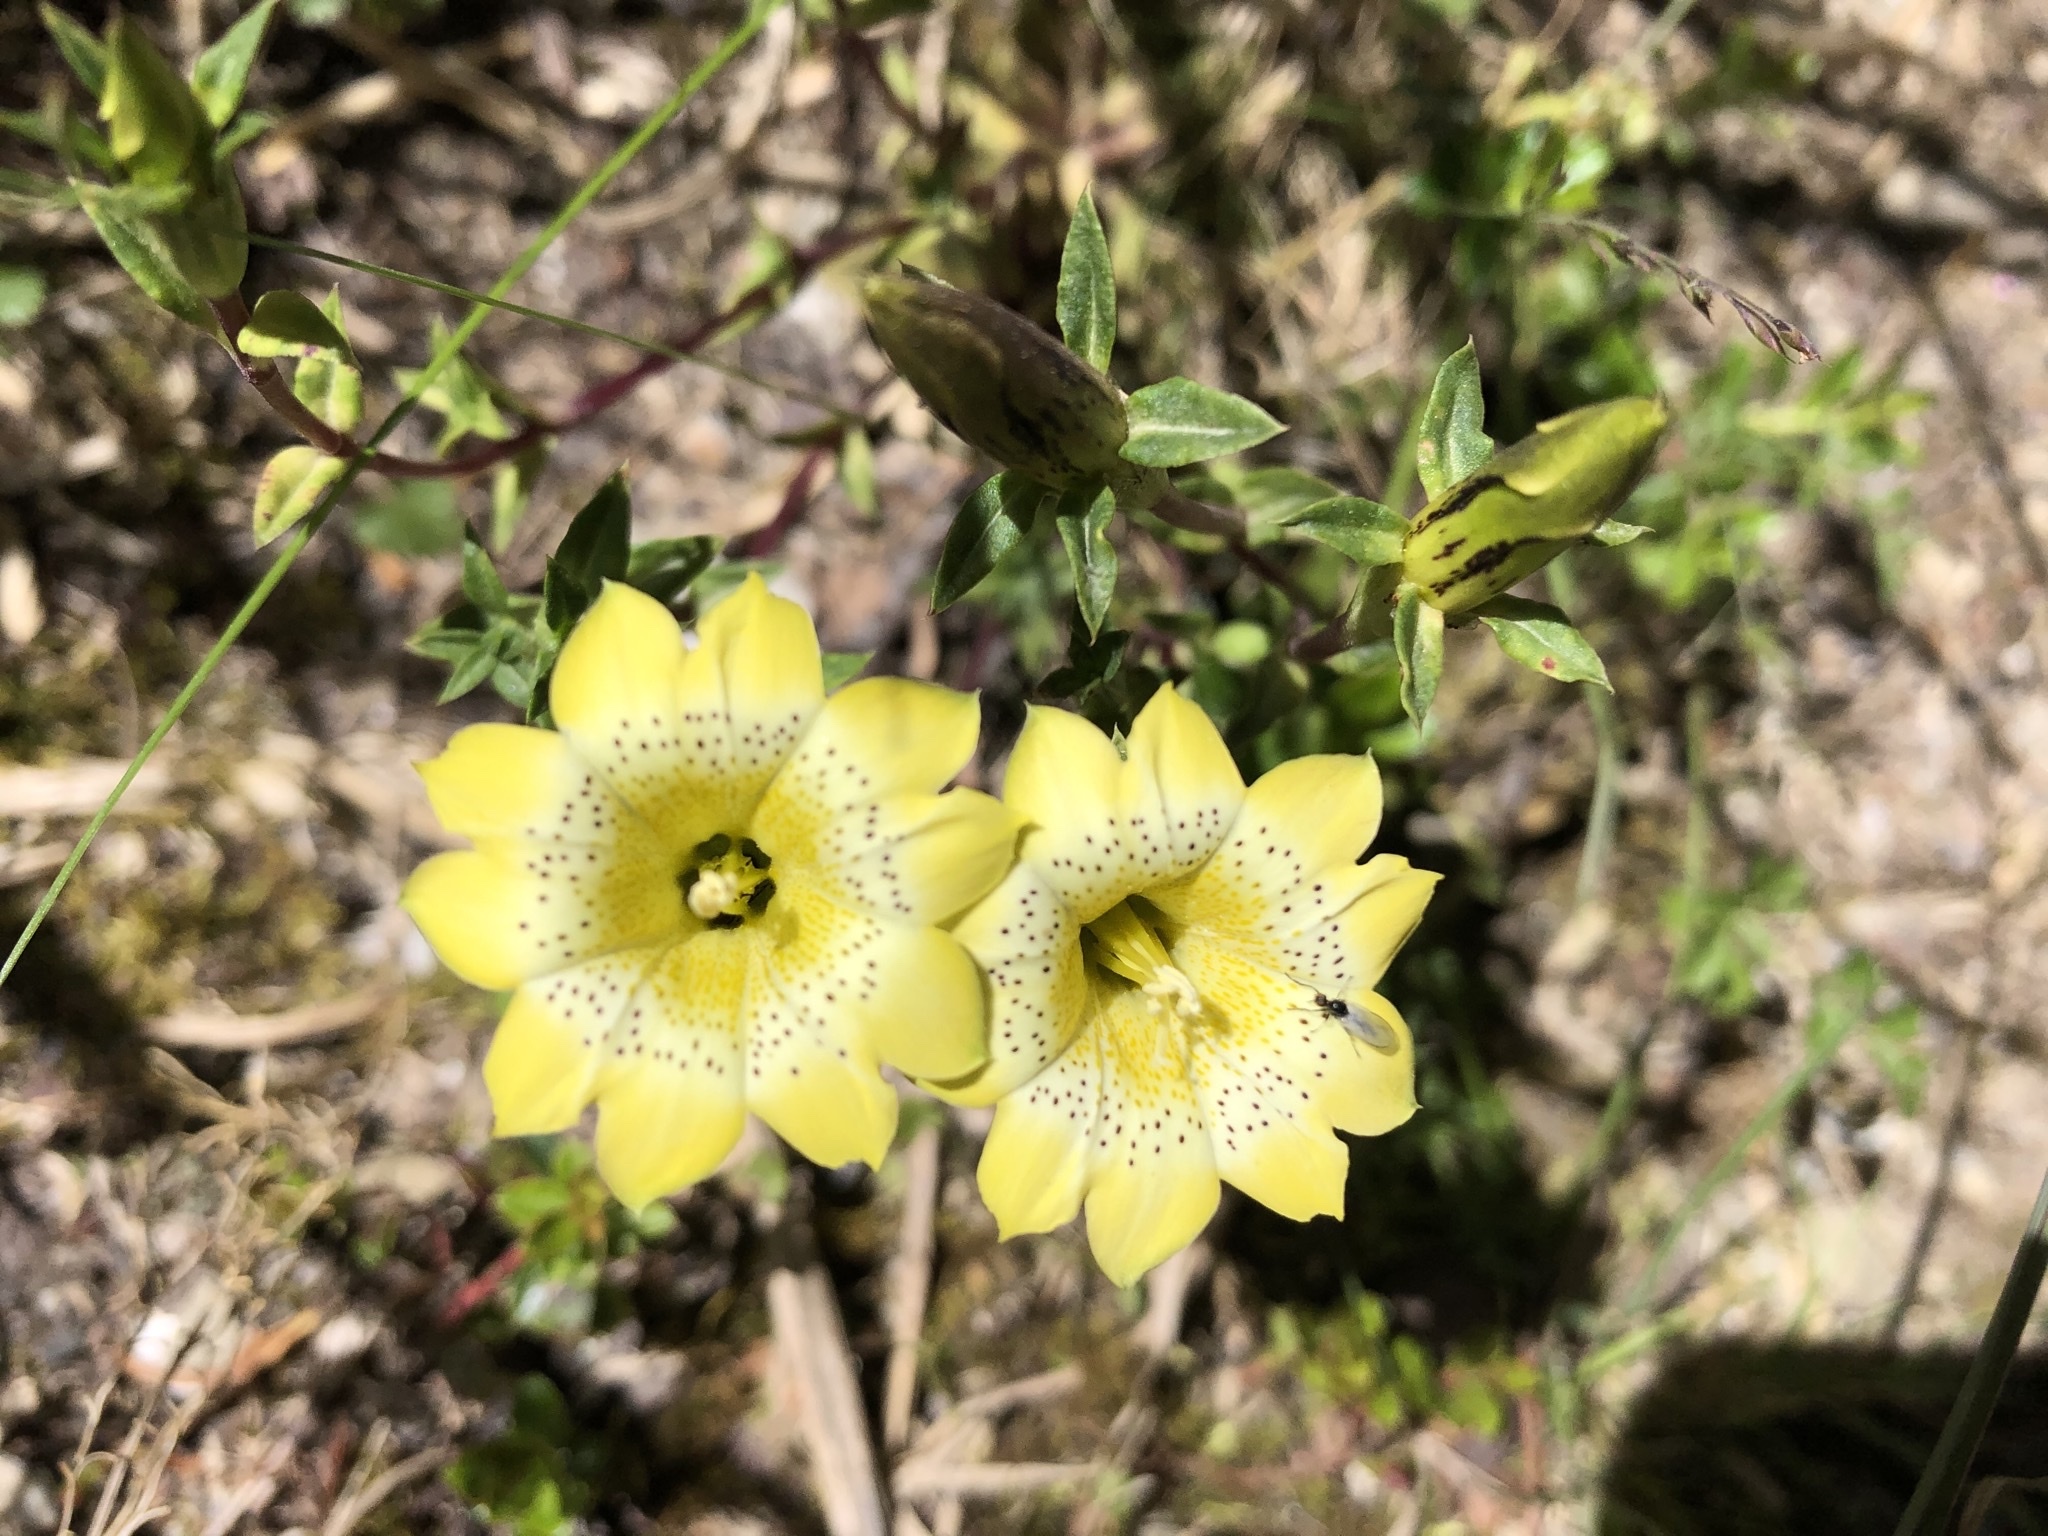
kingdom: Plantae
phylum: Tracheophyta
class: Magnoliopsida
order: Gentianales
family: Gentianaceae
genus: Gentiana
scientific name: Gentiana scabrida
